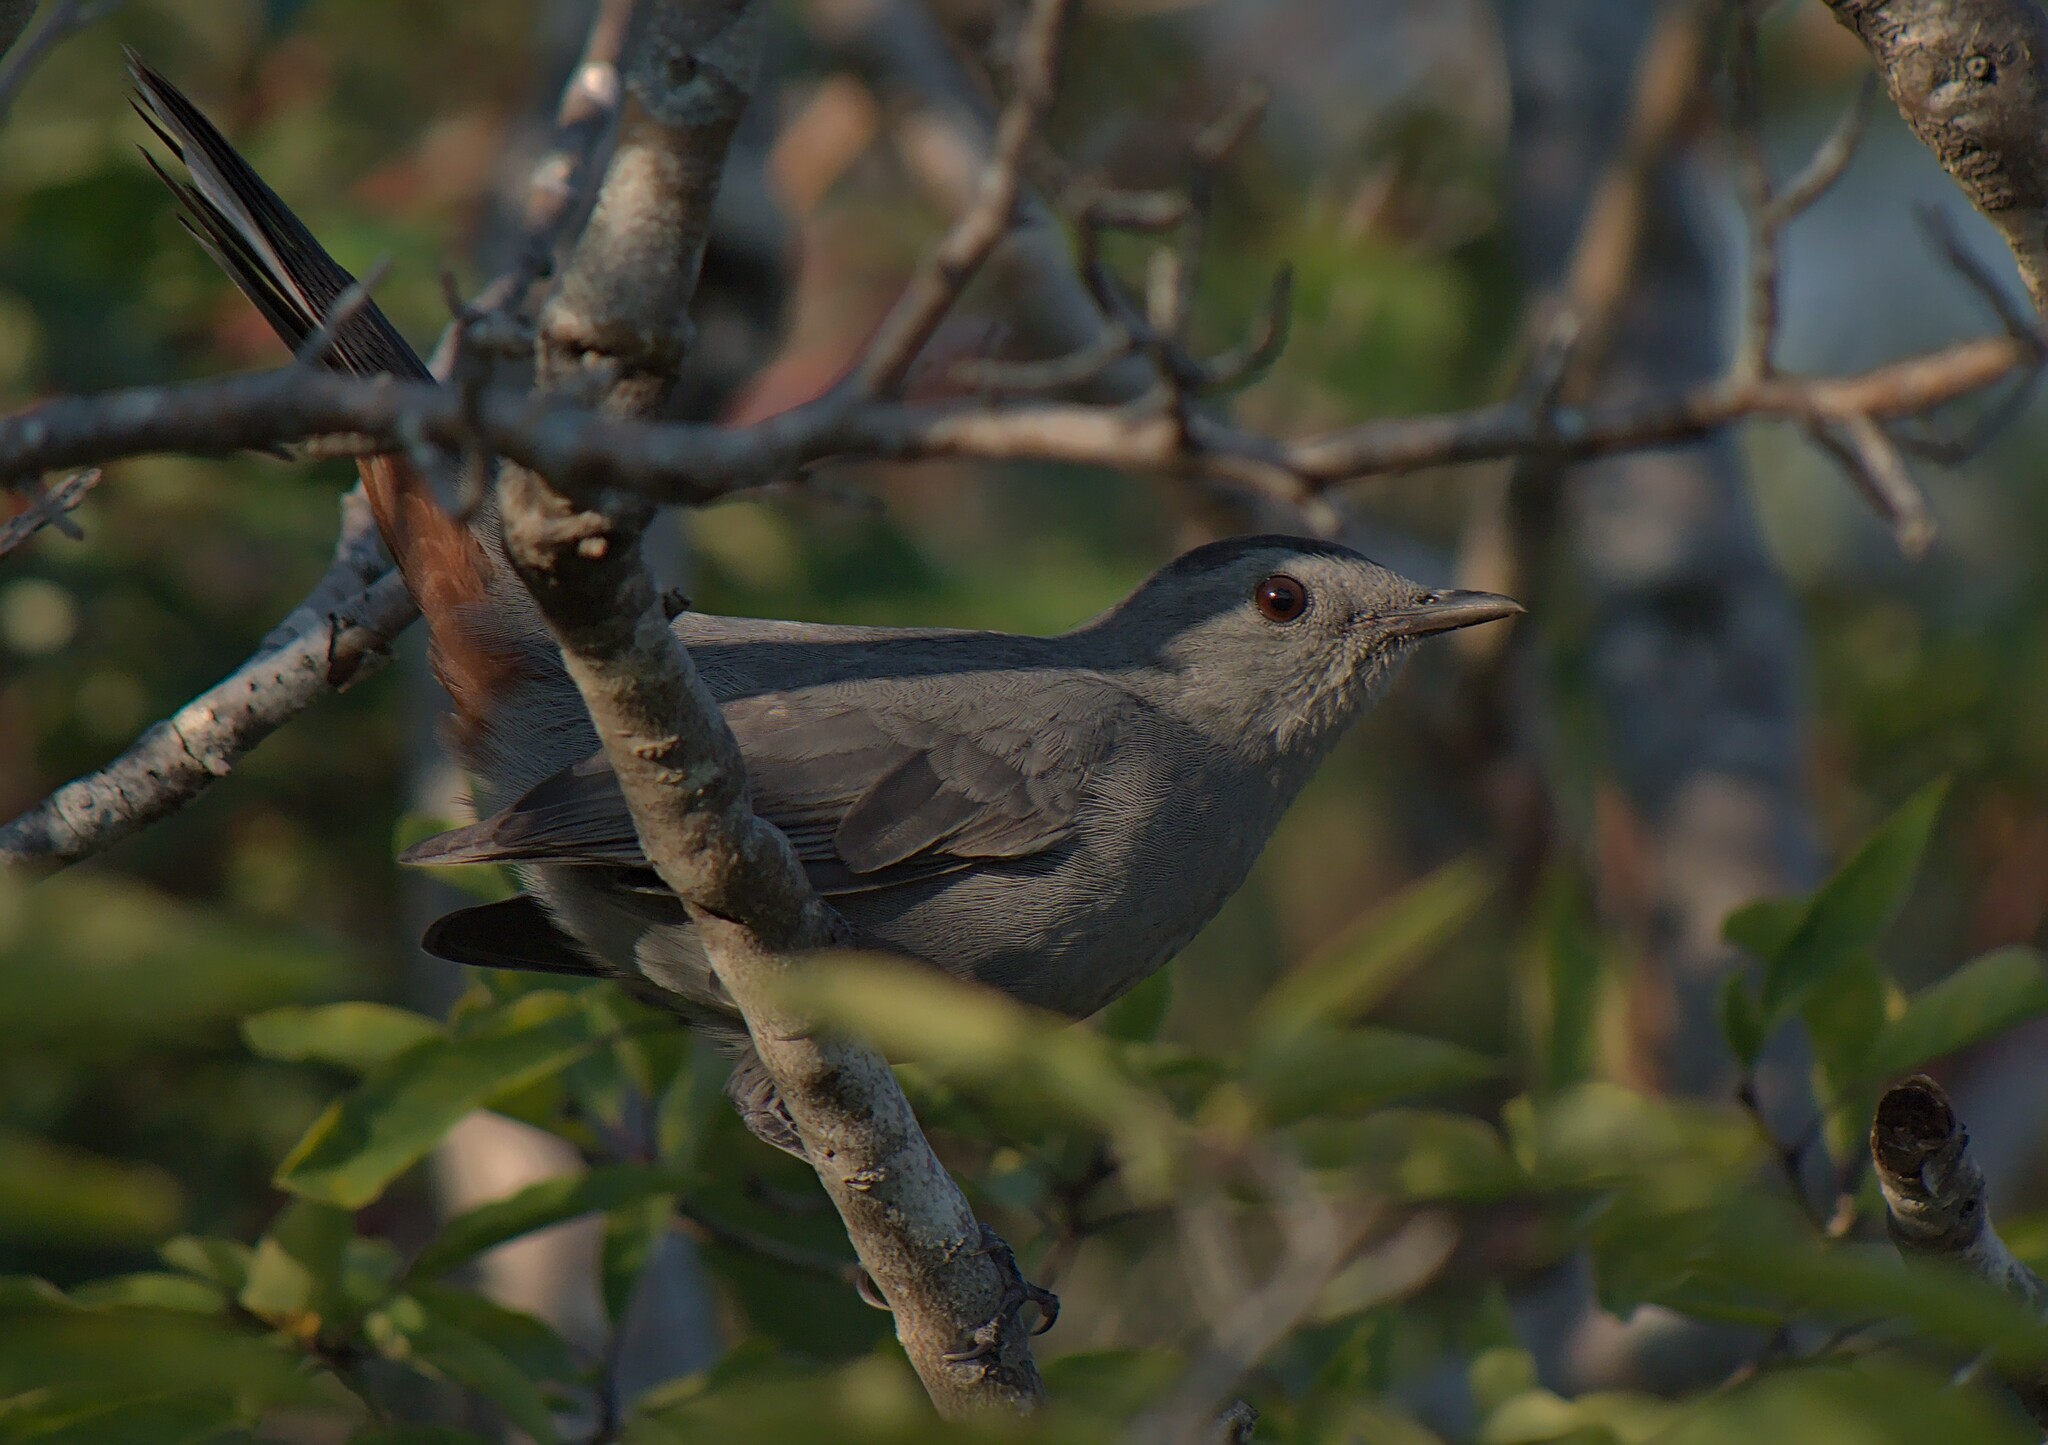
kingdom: Animalia
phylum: Chordata
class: Aves
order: Passeriformes
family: Mimidae
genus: Dumetella
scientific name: Dumetella carolinensis
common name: Gray catbird
